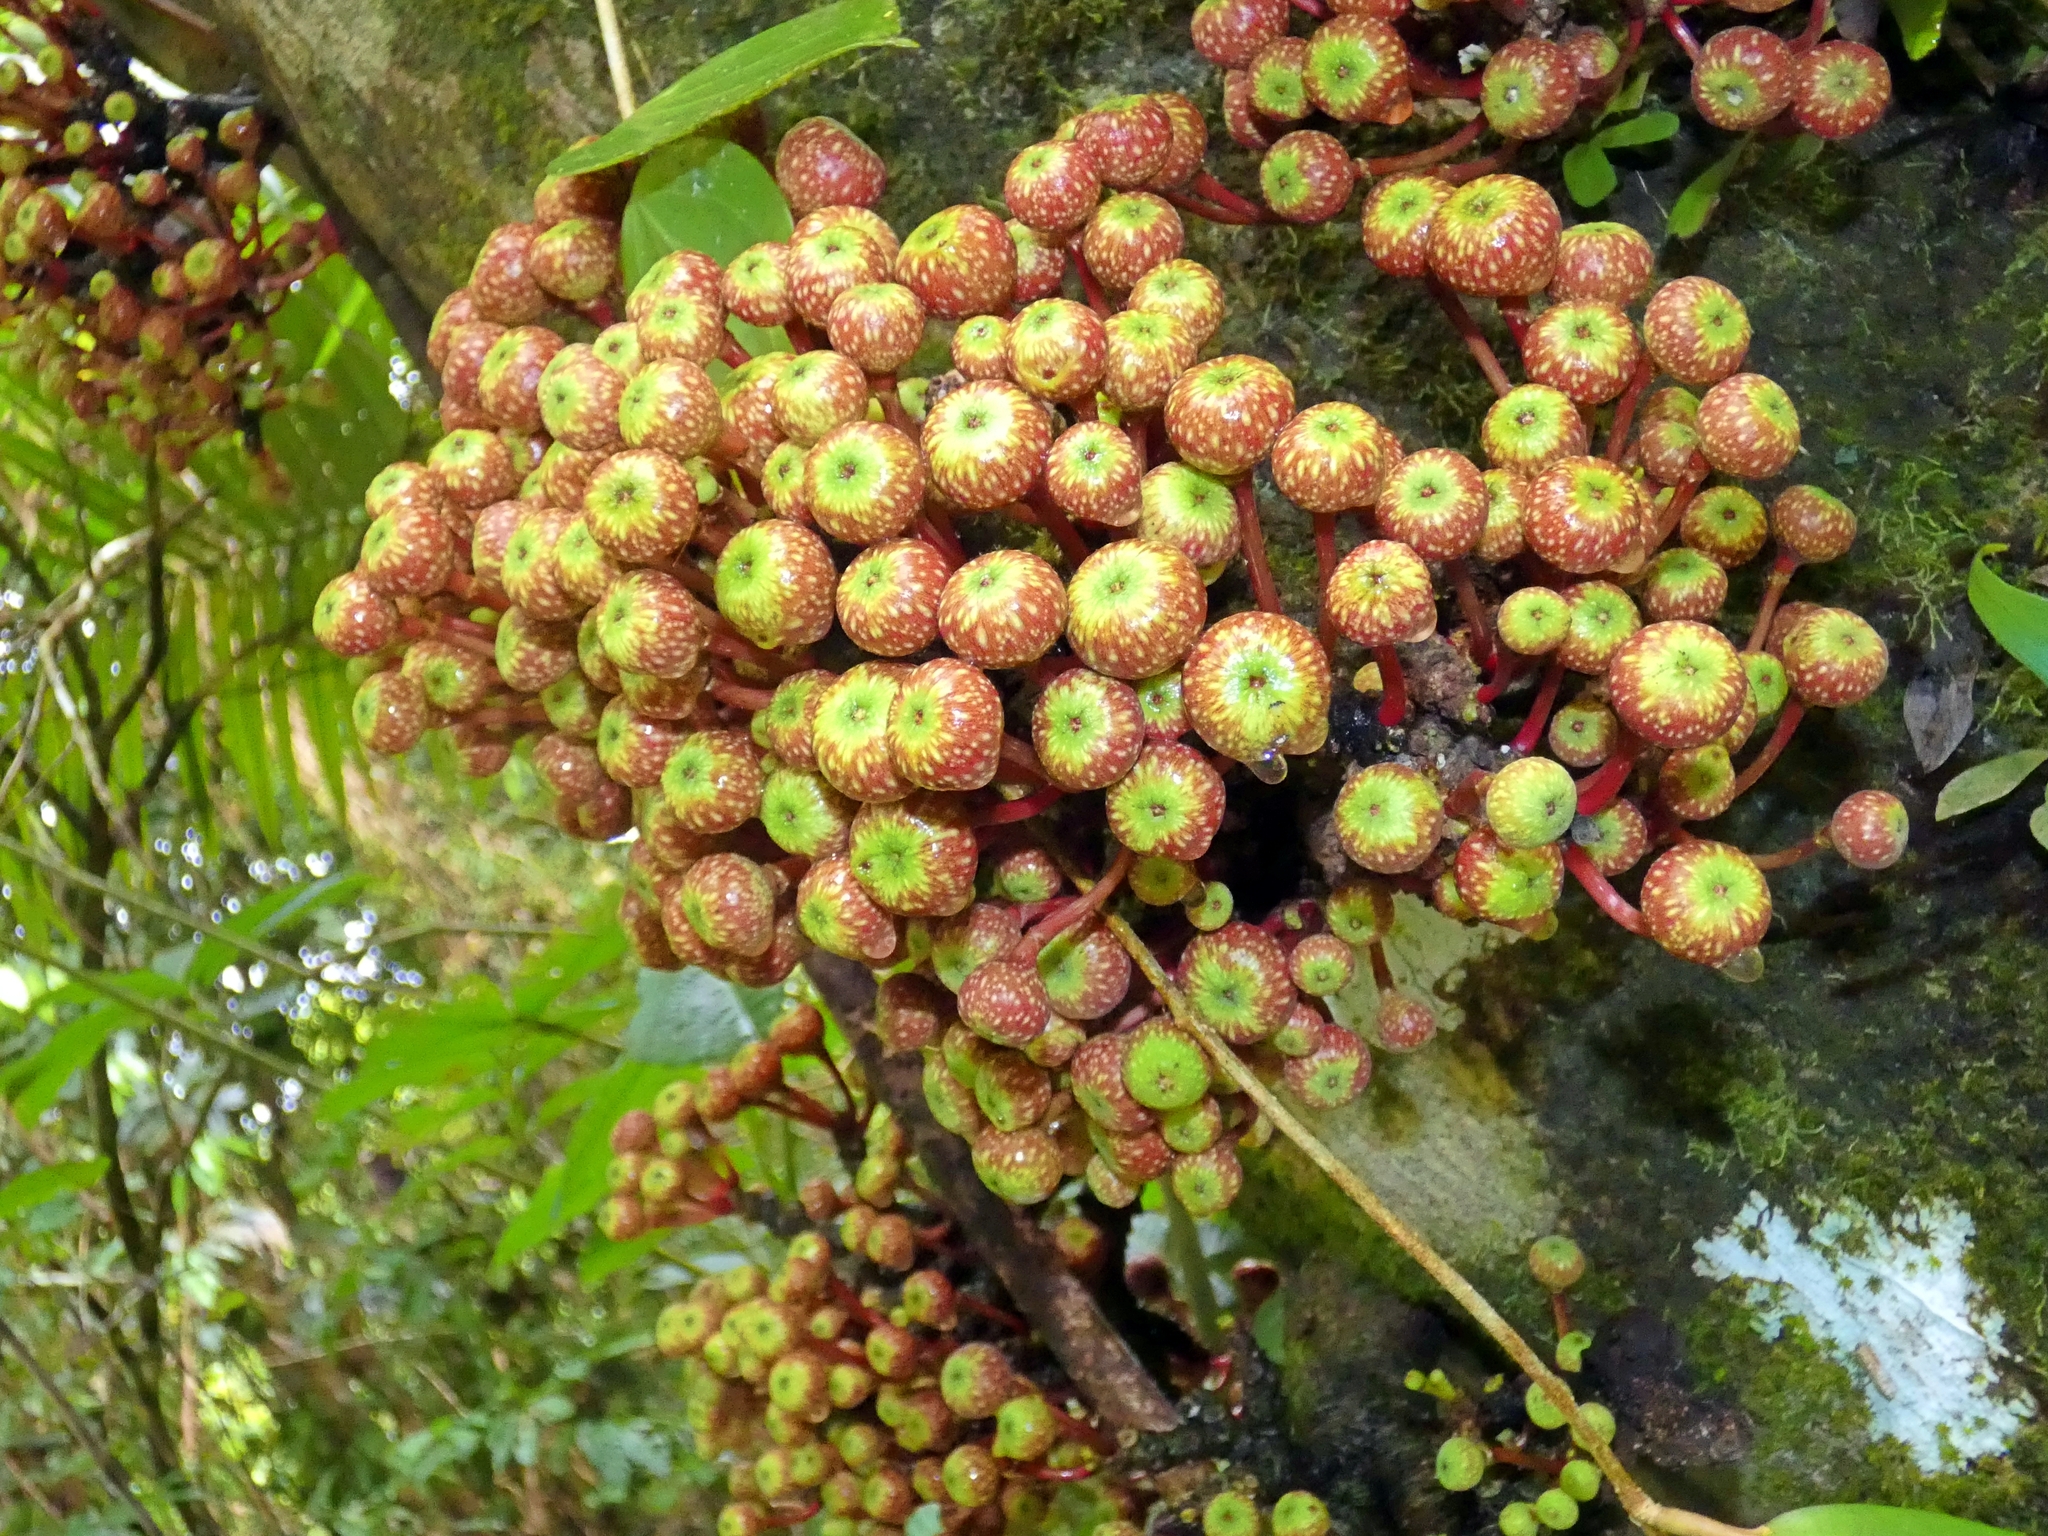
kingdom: Plantae
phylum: Tracheophyta
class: Magnoliopsida
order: Rosales
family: Moraceae
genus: Ficus
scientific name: Ficus variegata
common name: Variegated fig
